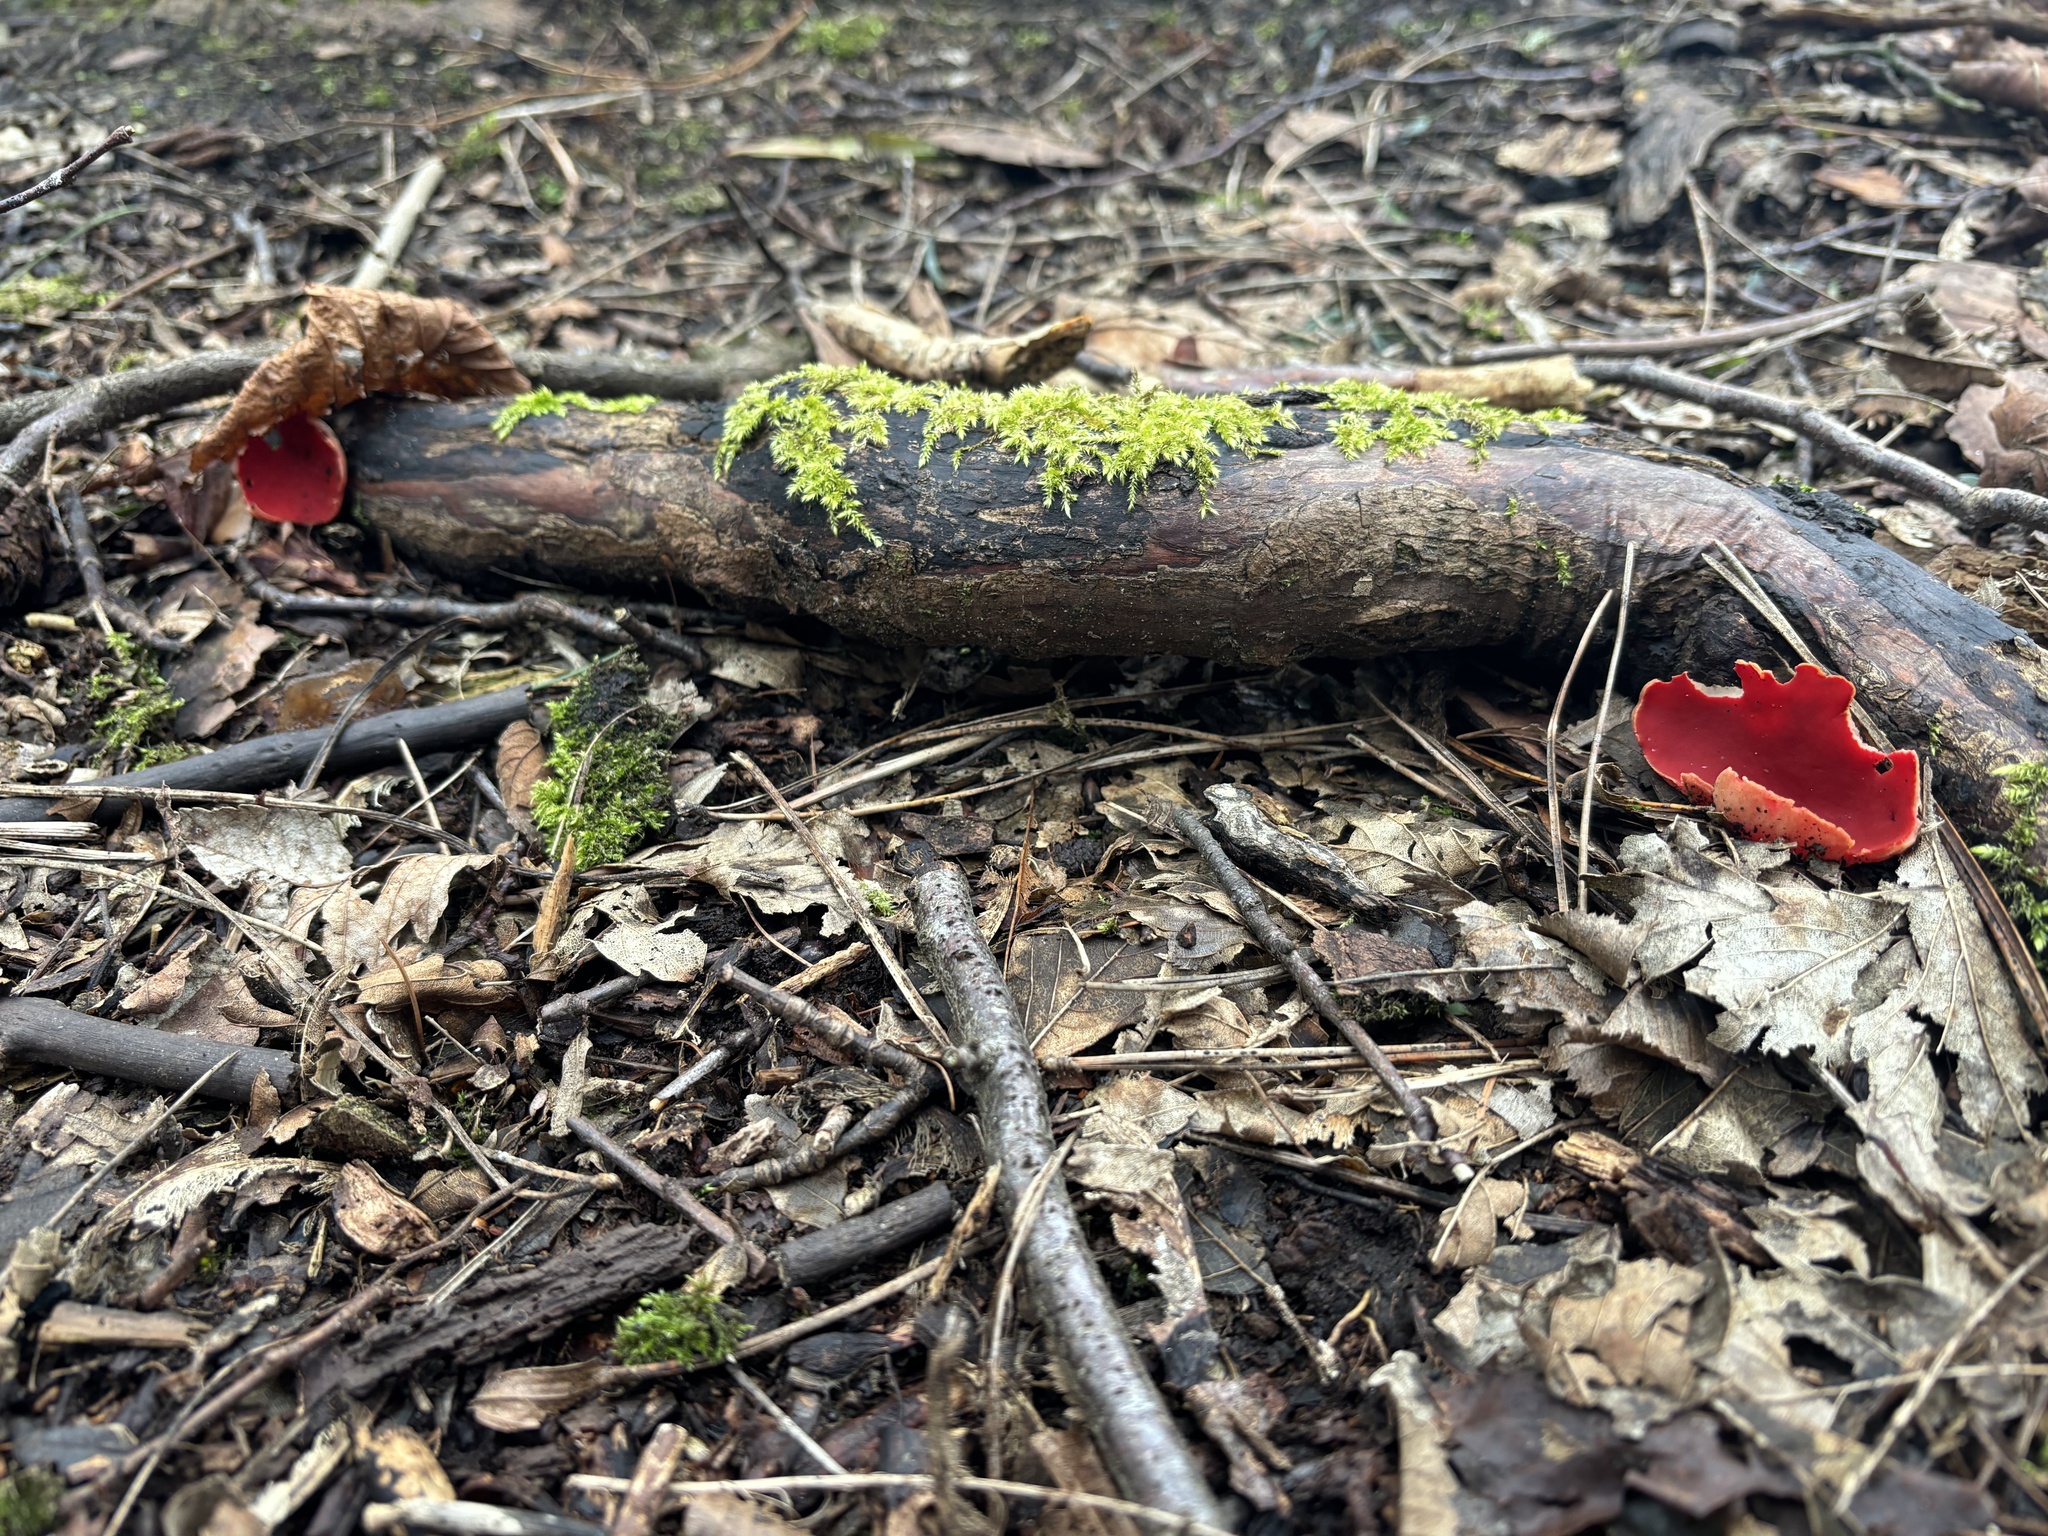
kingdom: Fungi
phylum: Ascomycota
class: Pezizomycetes
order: Pezizales
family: Sarcoscyphaceae
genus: Sarcoscypha
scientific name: Sarcoscypha
